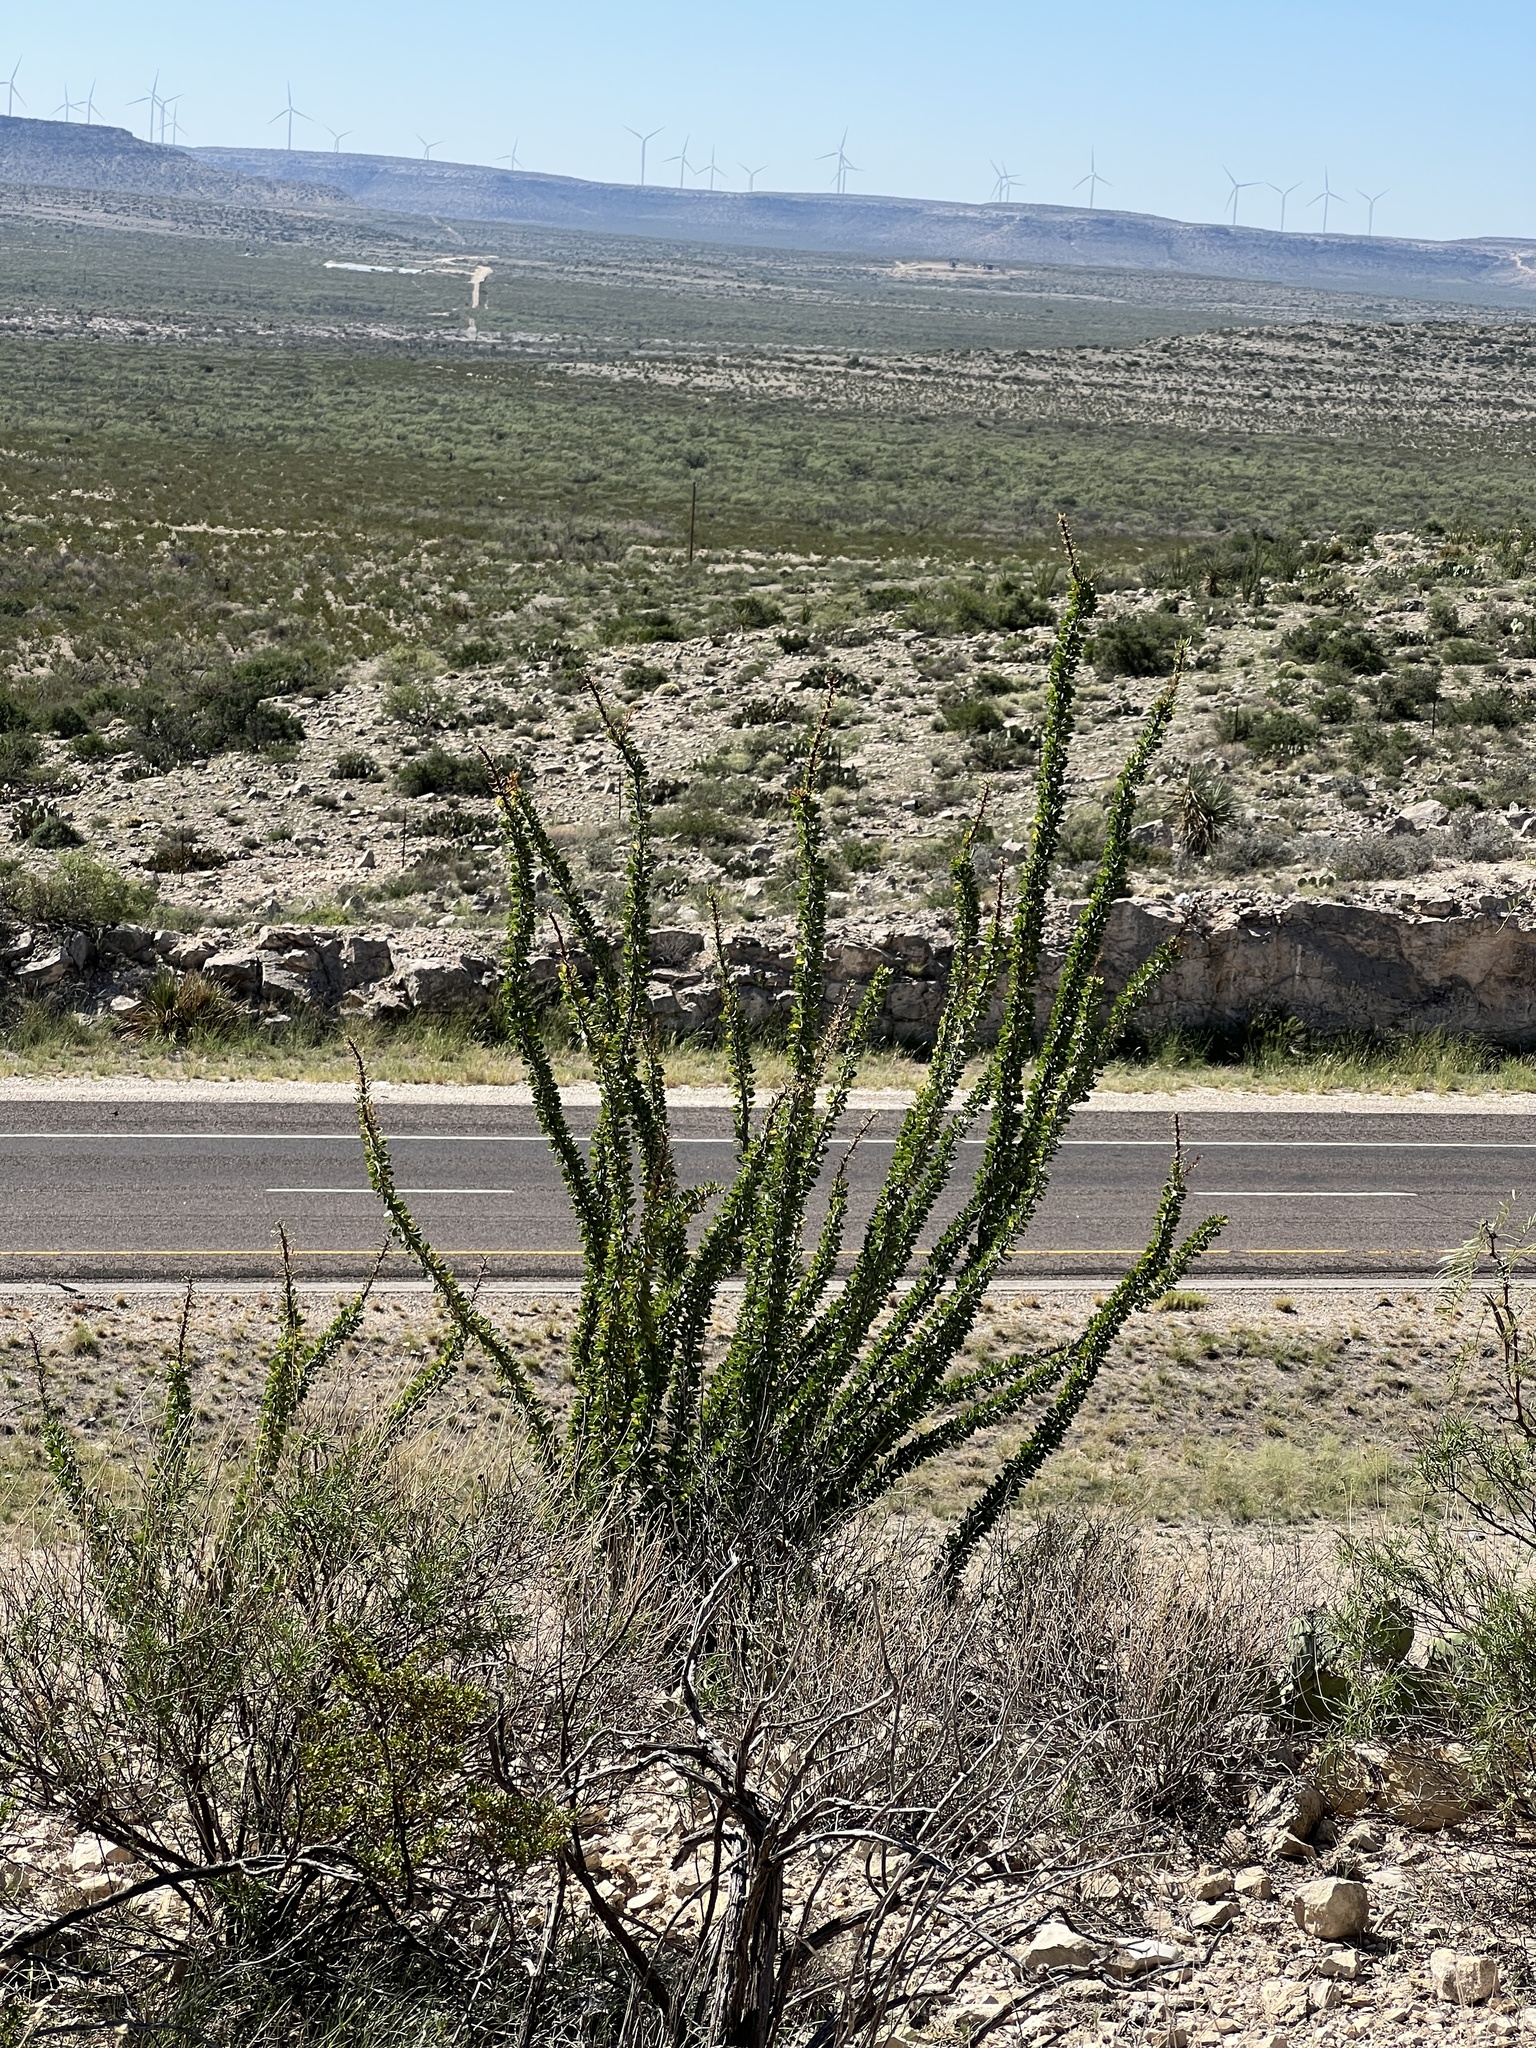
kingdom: Plantae
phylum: Tracheophyta
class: Magnoliopsida
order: Ericales
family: Fouquieriaceae
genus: Fouquieria
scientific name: Fouquieria splendens
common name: Vine-cactus
